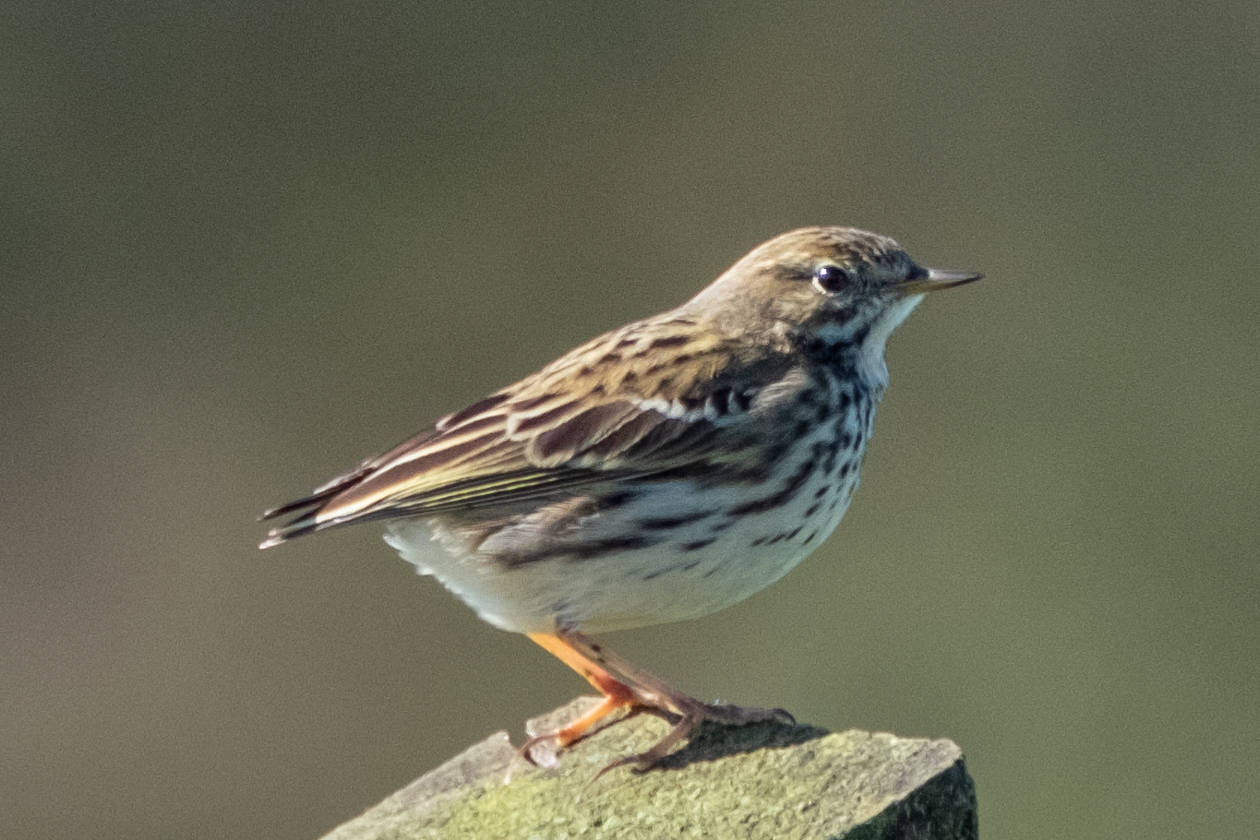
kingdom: Animalia
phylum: Chordata
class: Aves
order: Passeriformes
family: Motacillidae
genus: Anthus
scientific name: Anthus pratensis
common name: Meadow pipit
